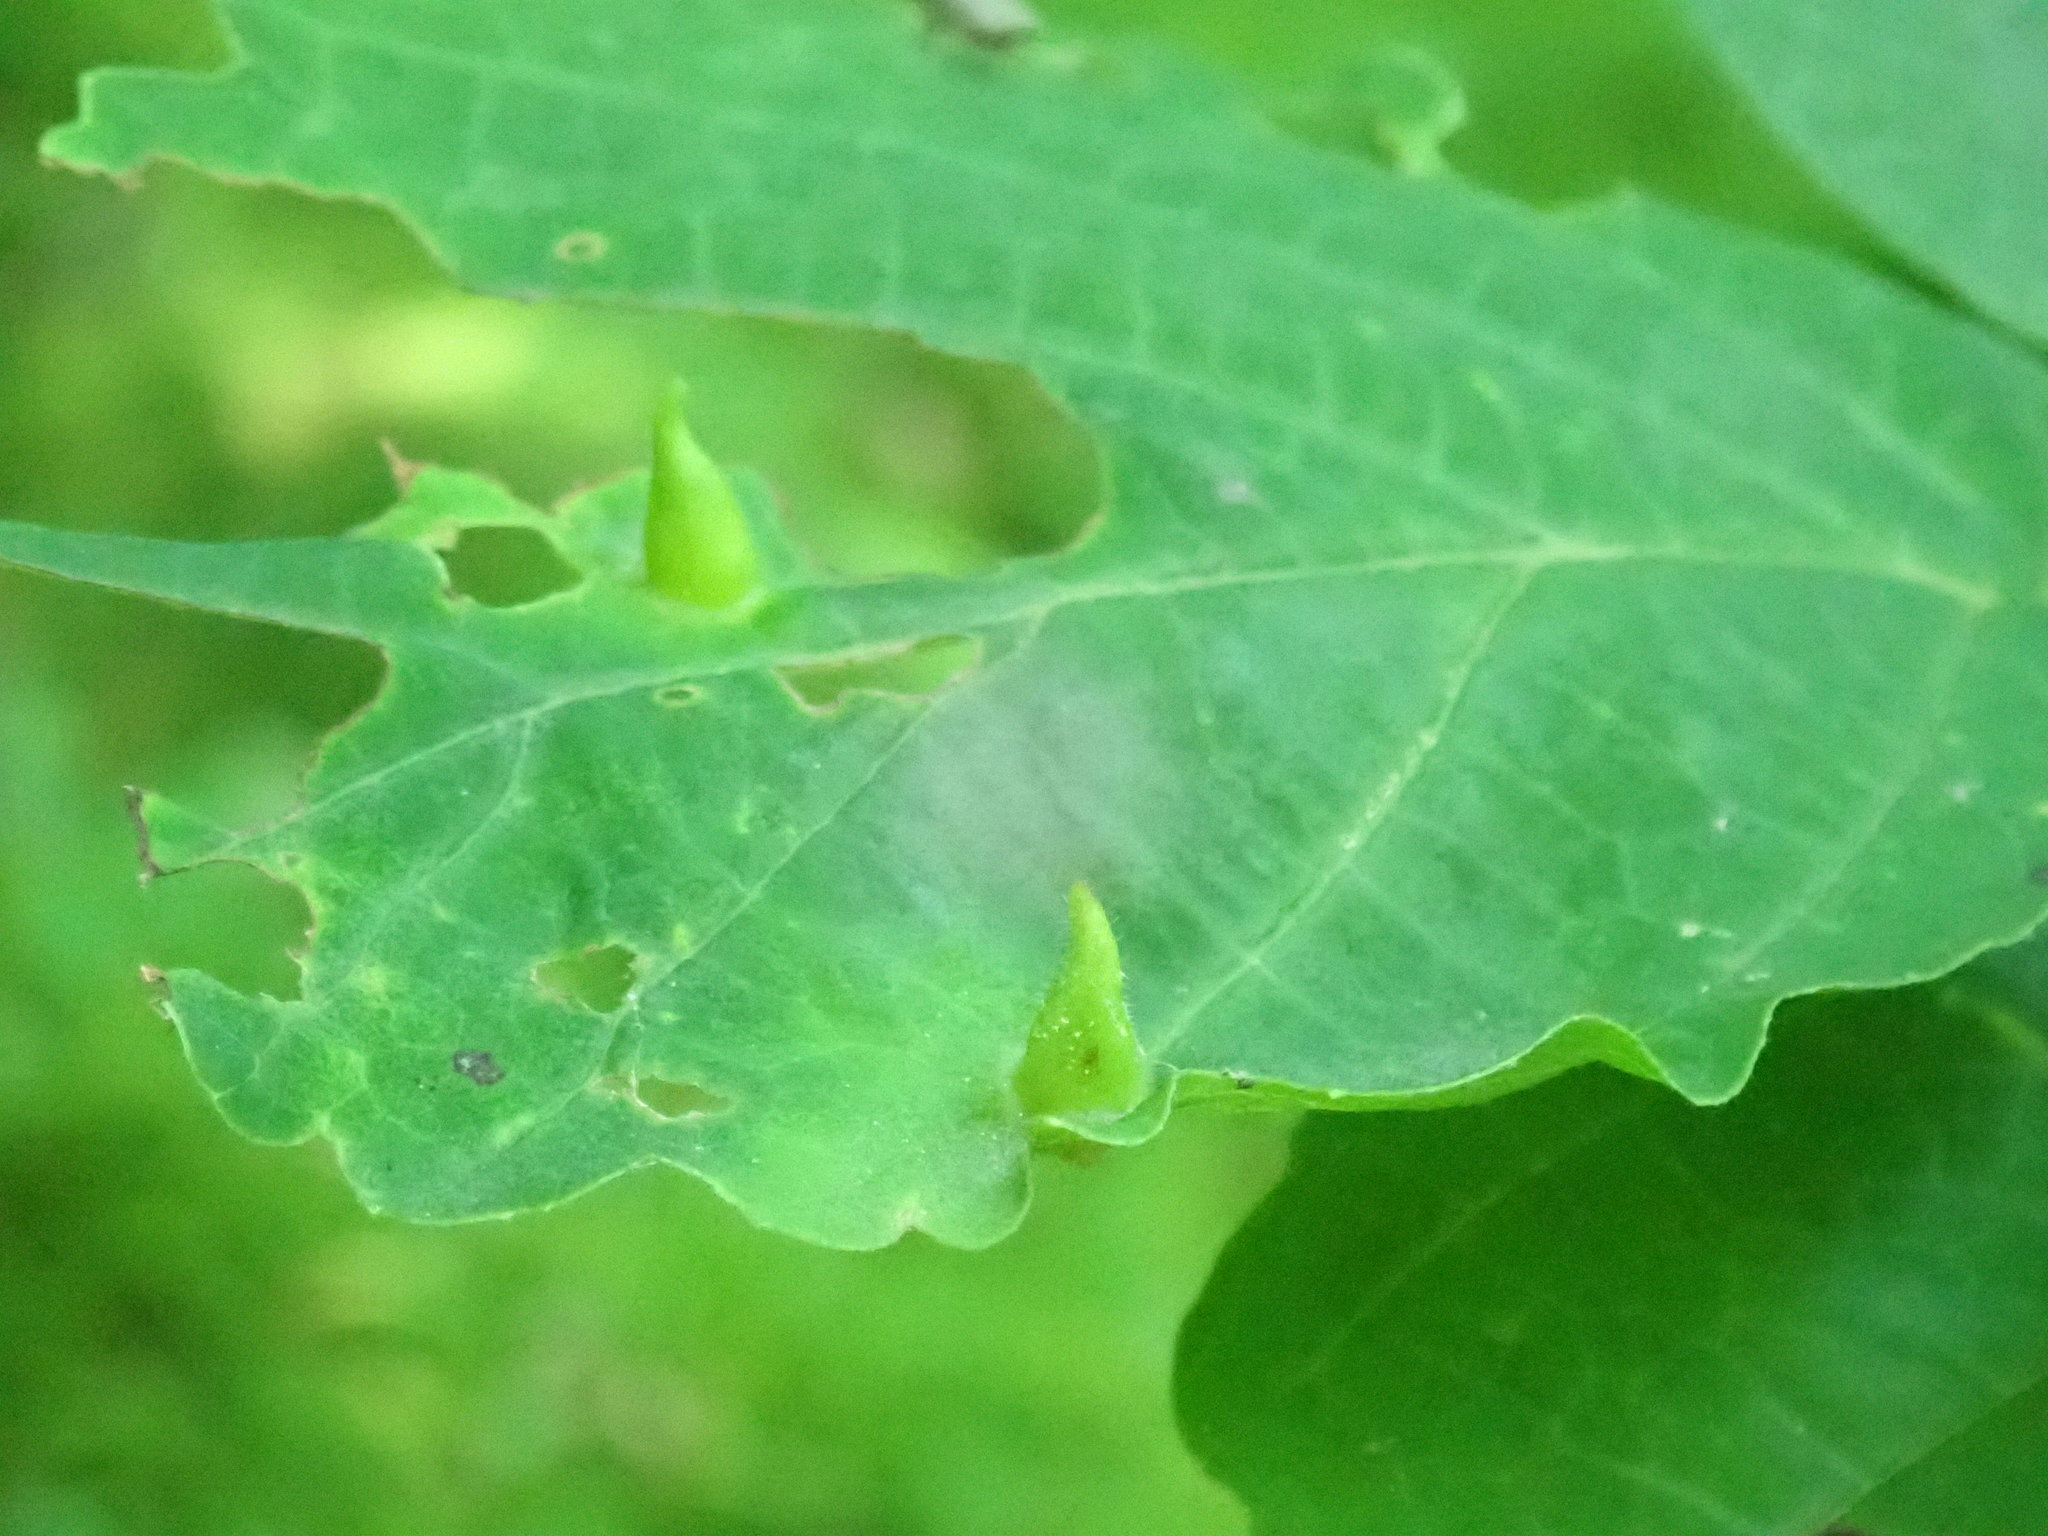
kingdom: Animalia
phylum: Arthropoda
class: Insecta
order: Hemiptera
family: Aphididae
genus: Hormaphis
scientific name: Hormaphis hamamelidis
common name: Witch-hazel cone gall aphid
